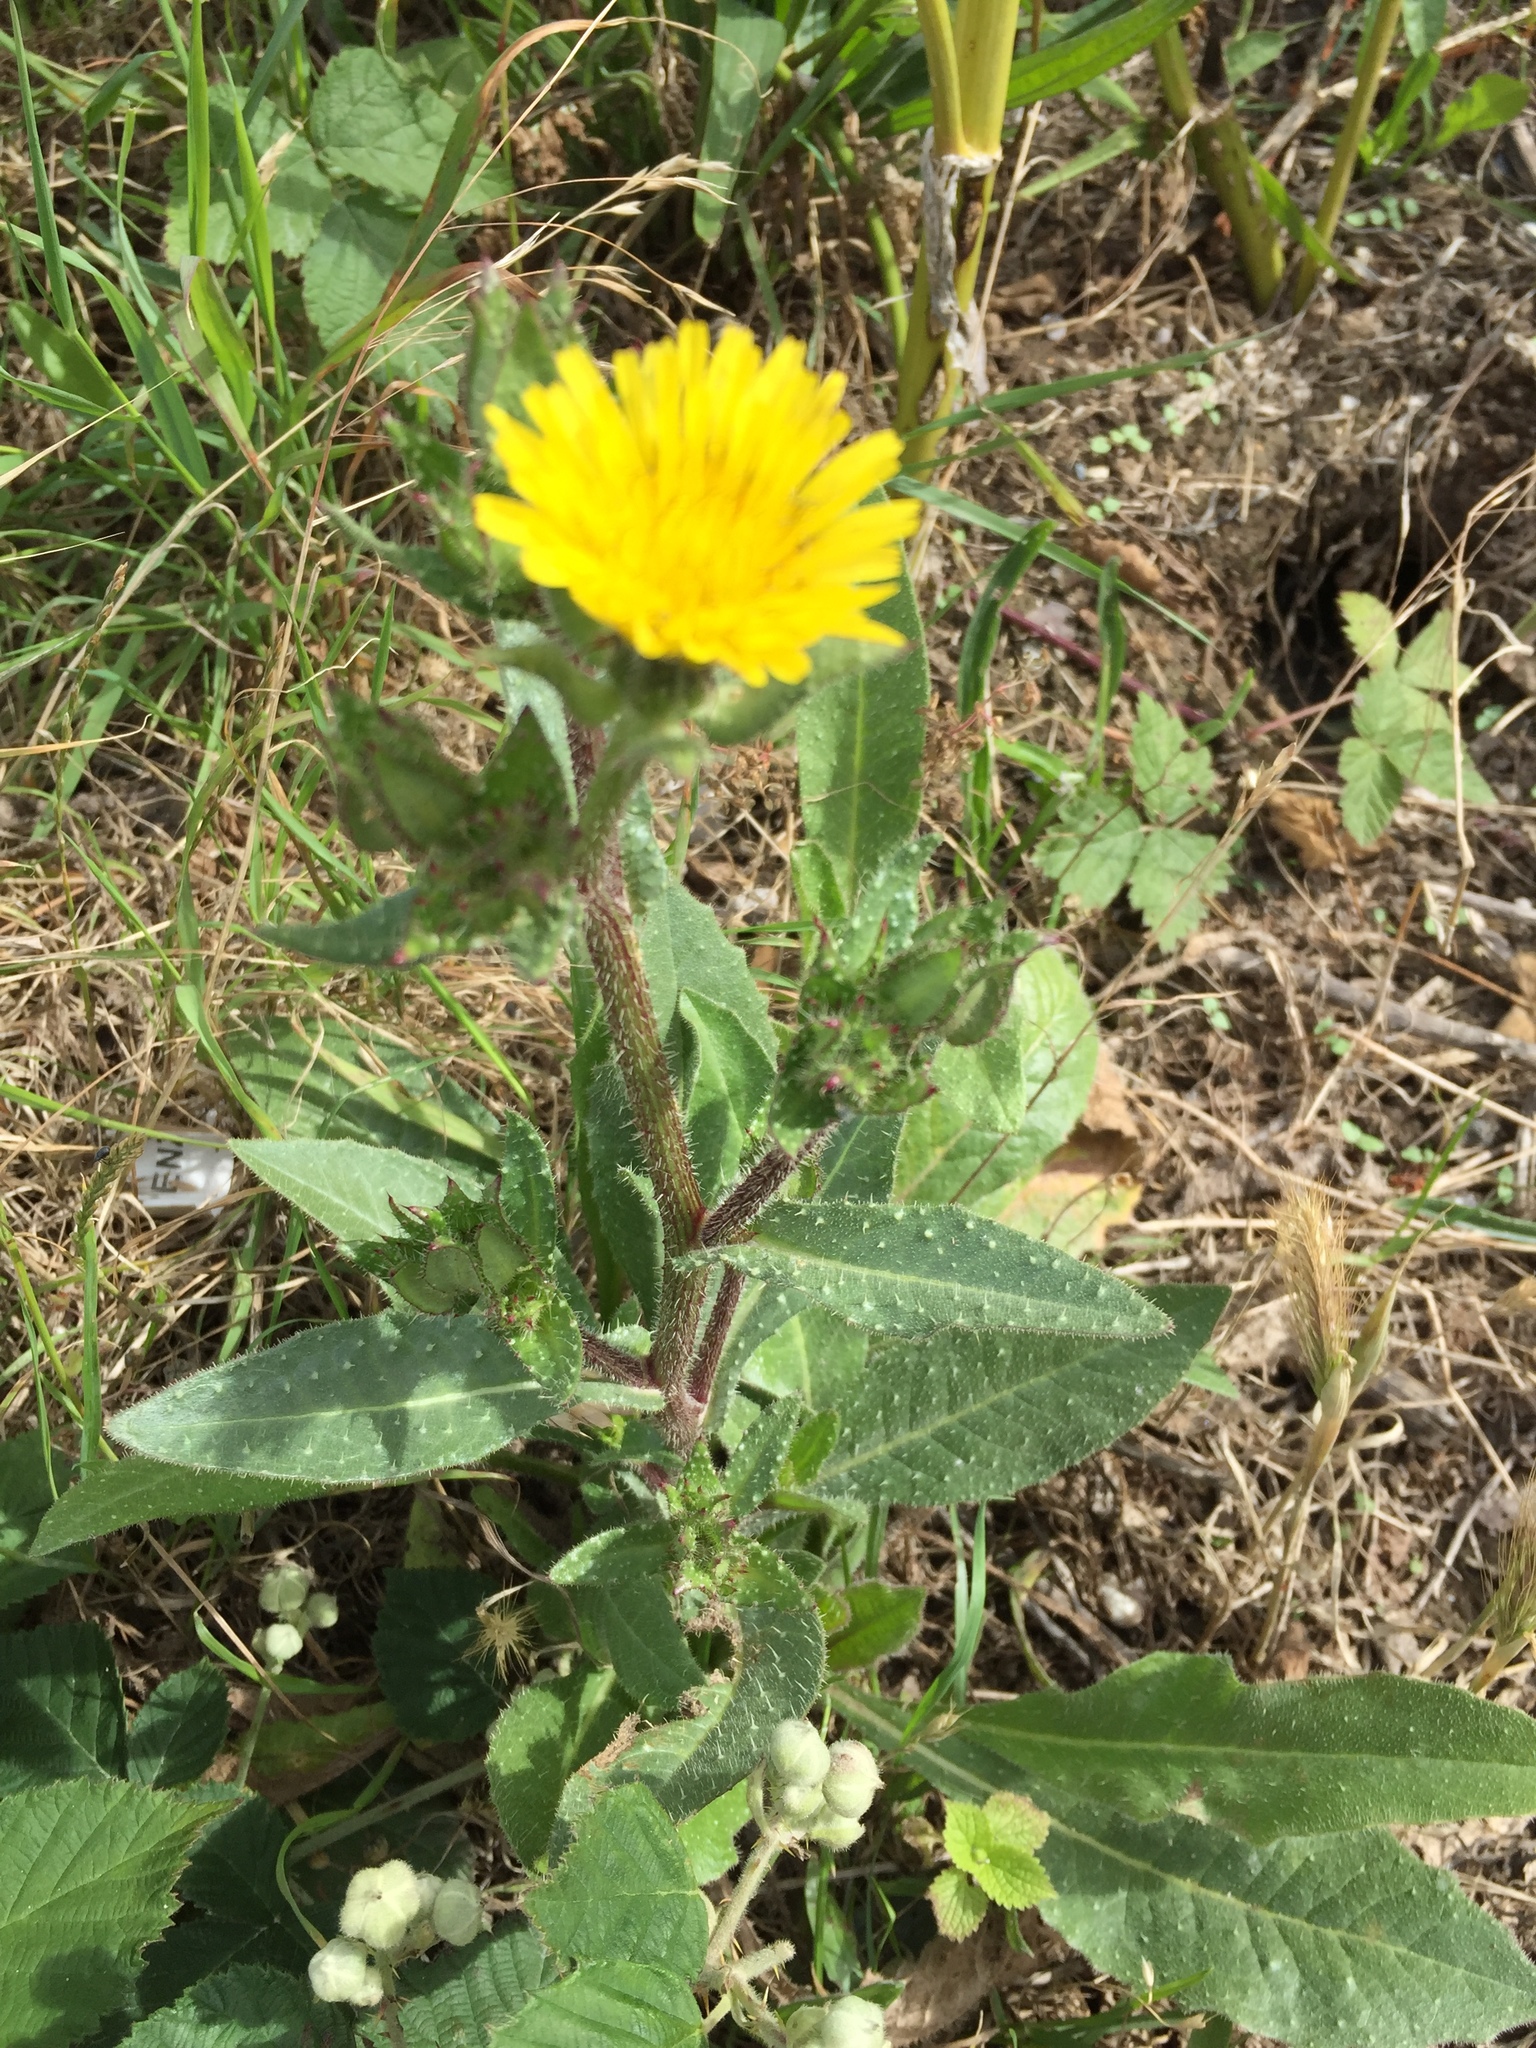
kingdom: Plantae
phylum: Tracheophyta
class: Magnoliopsida
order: Asterales
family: Asteraceae
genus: Helminthotheca
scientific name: Helminthotheca echioides
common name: Ox-tongue
